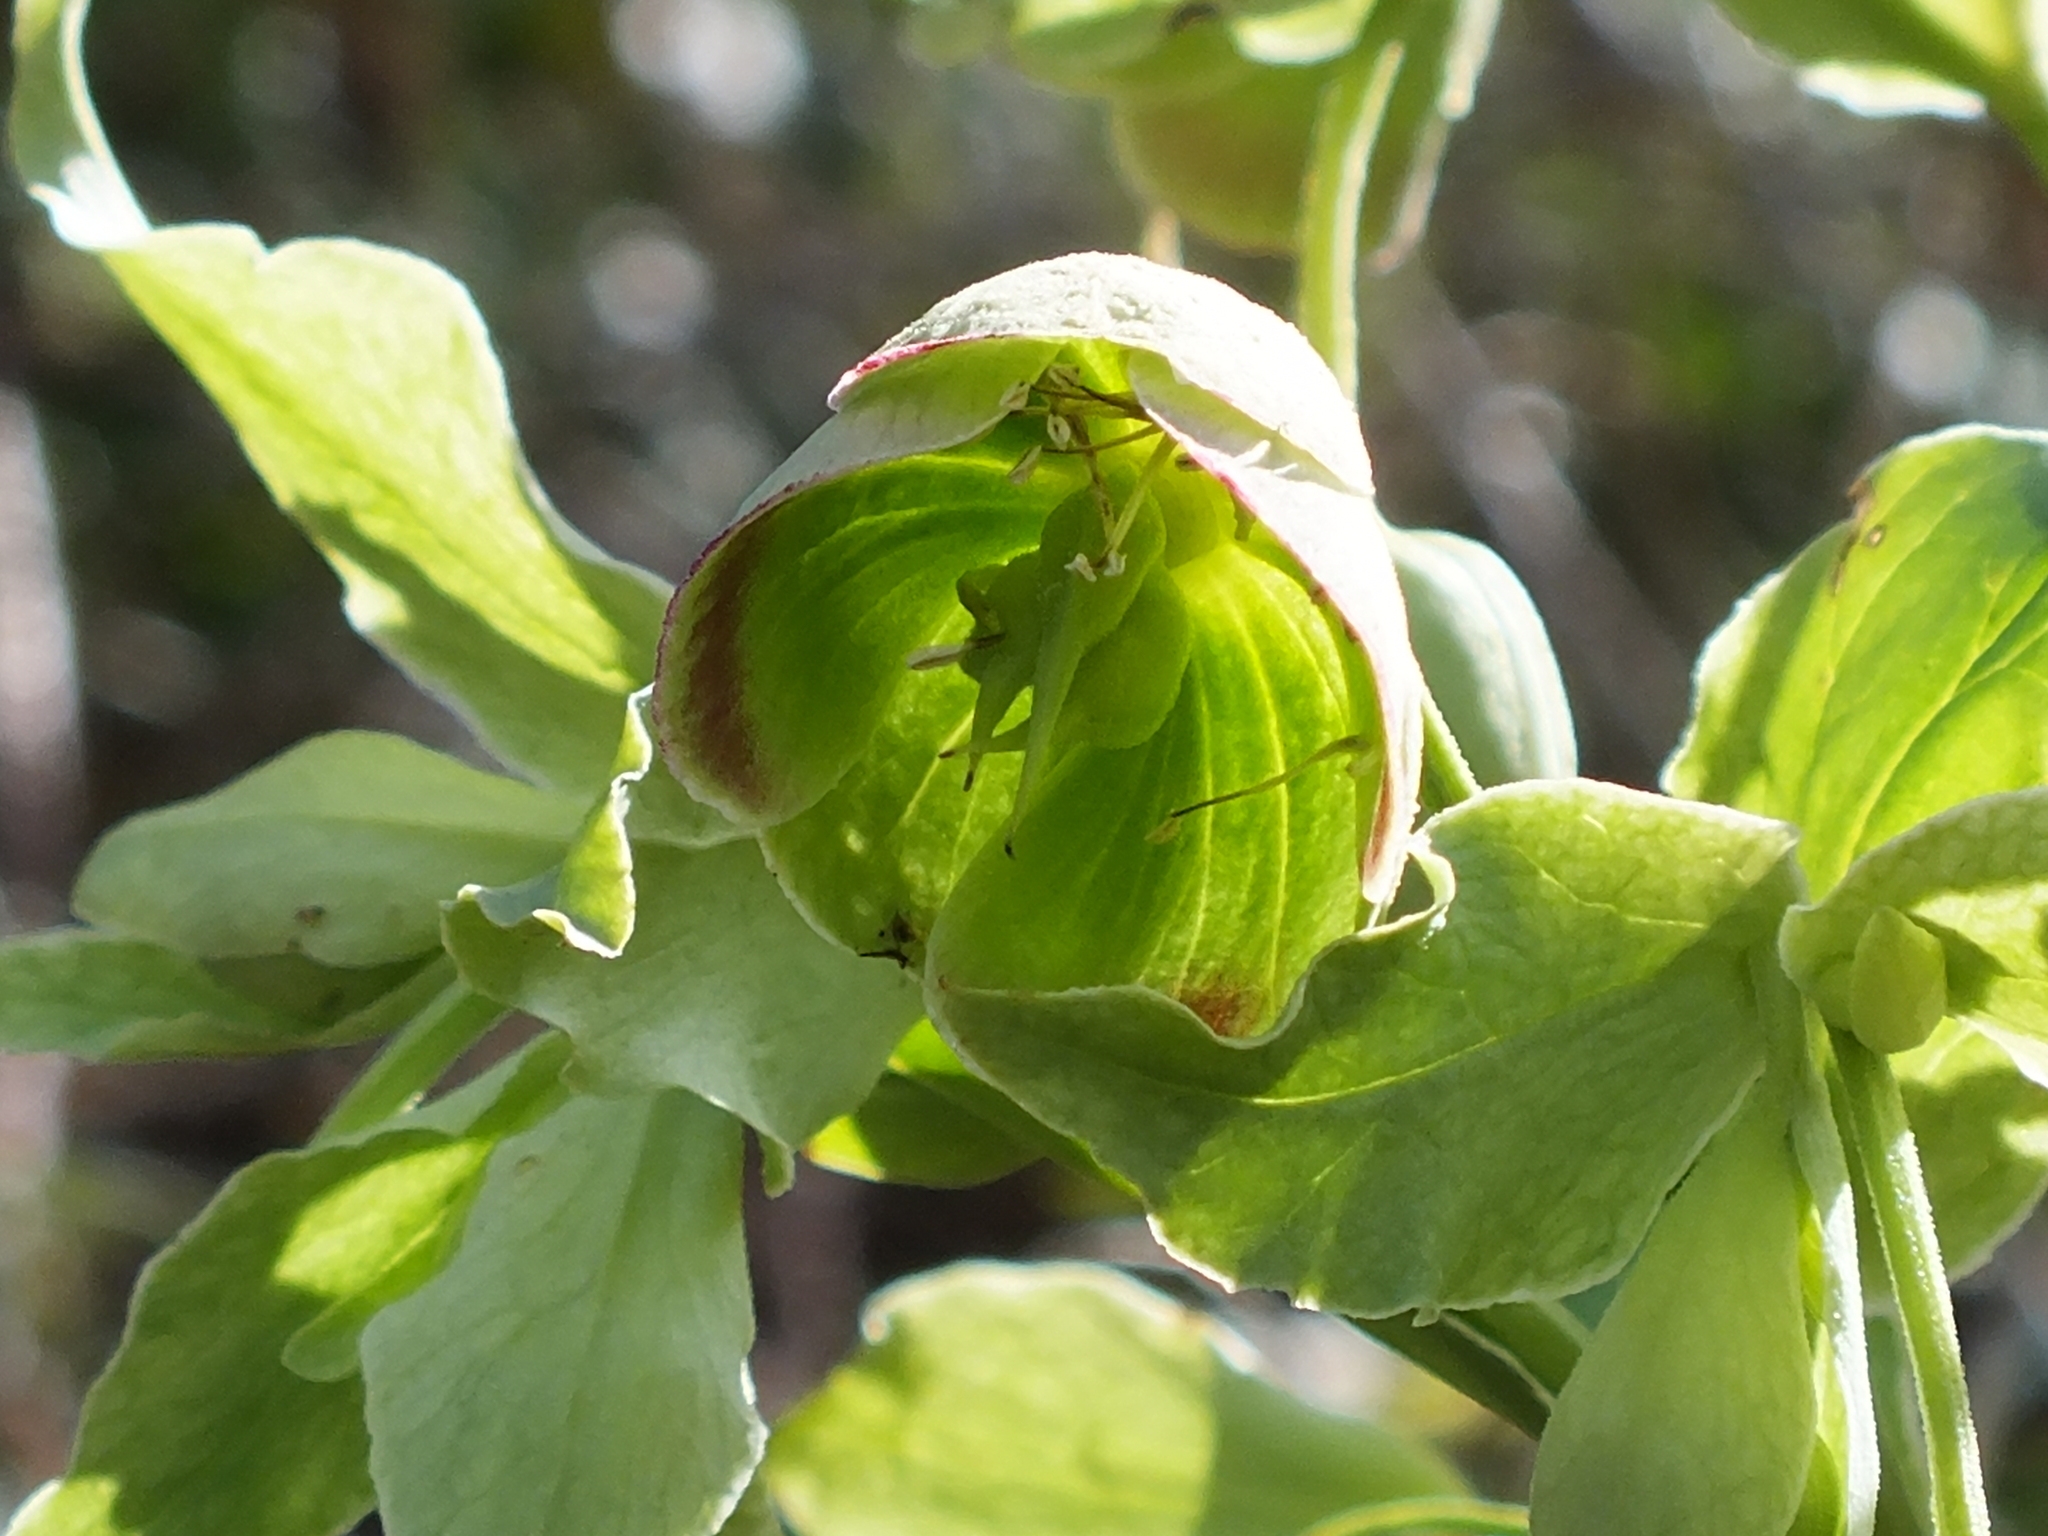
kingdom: Plantae
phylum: Tracheophyta
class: Magnoliopsida
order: Ranunculales
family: Ranunculaceae
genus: Helleborus
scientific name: Helleborus foetidus
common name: Stinking hellebore
